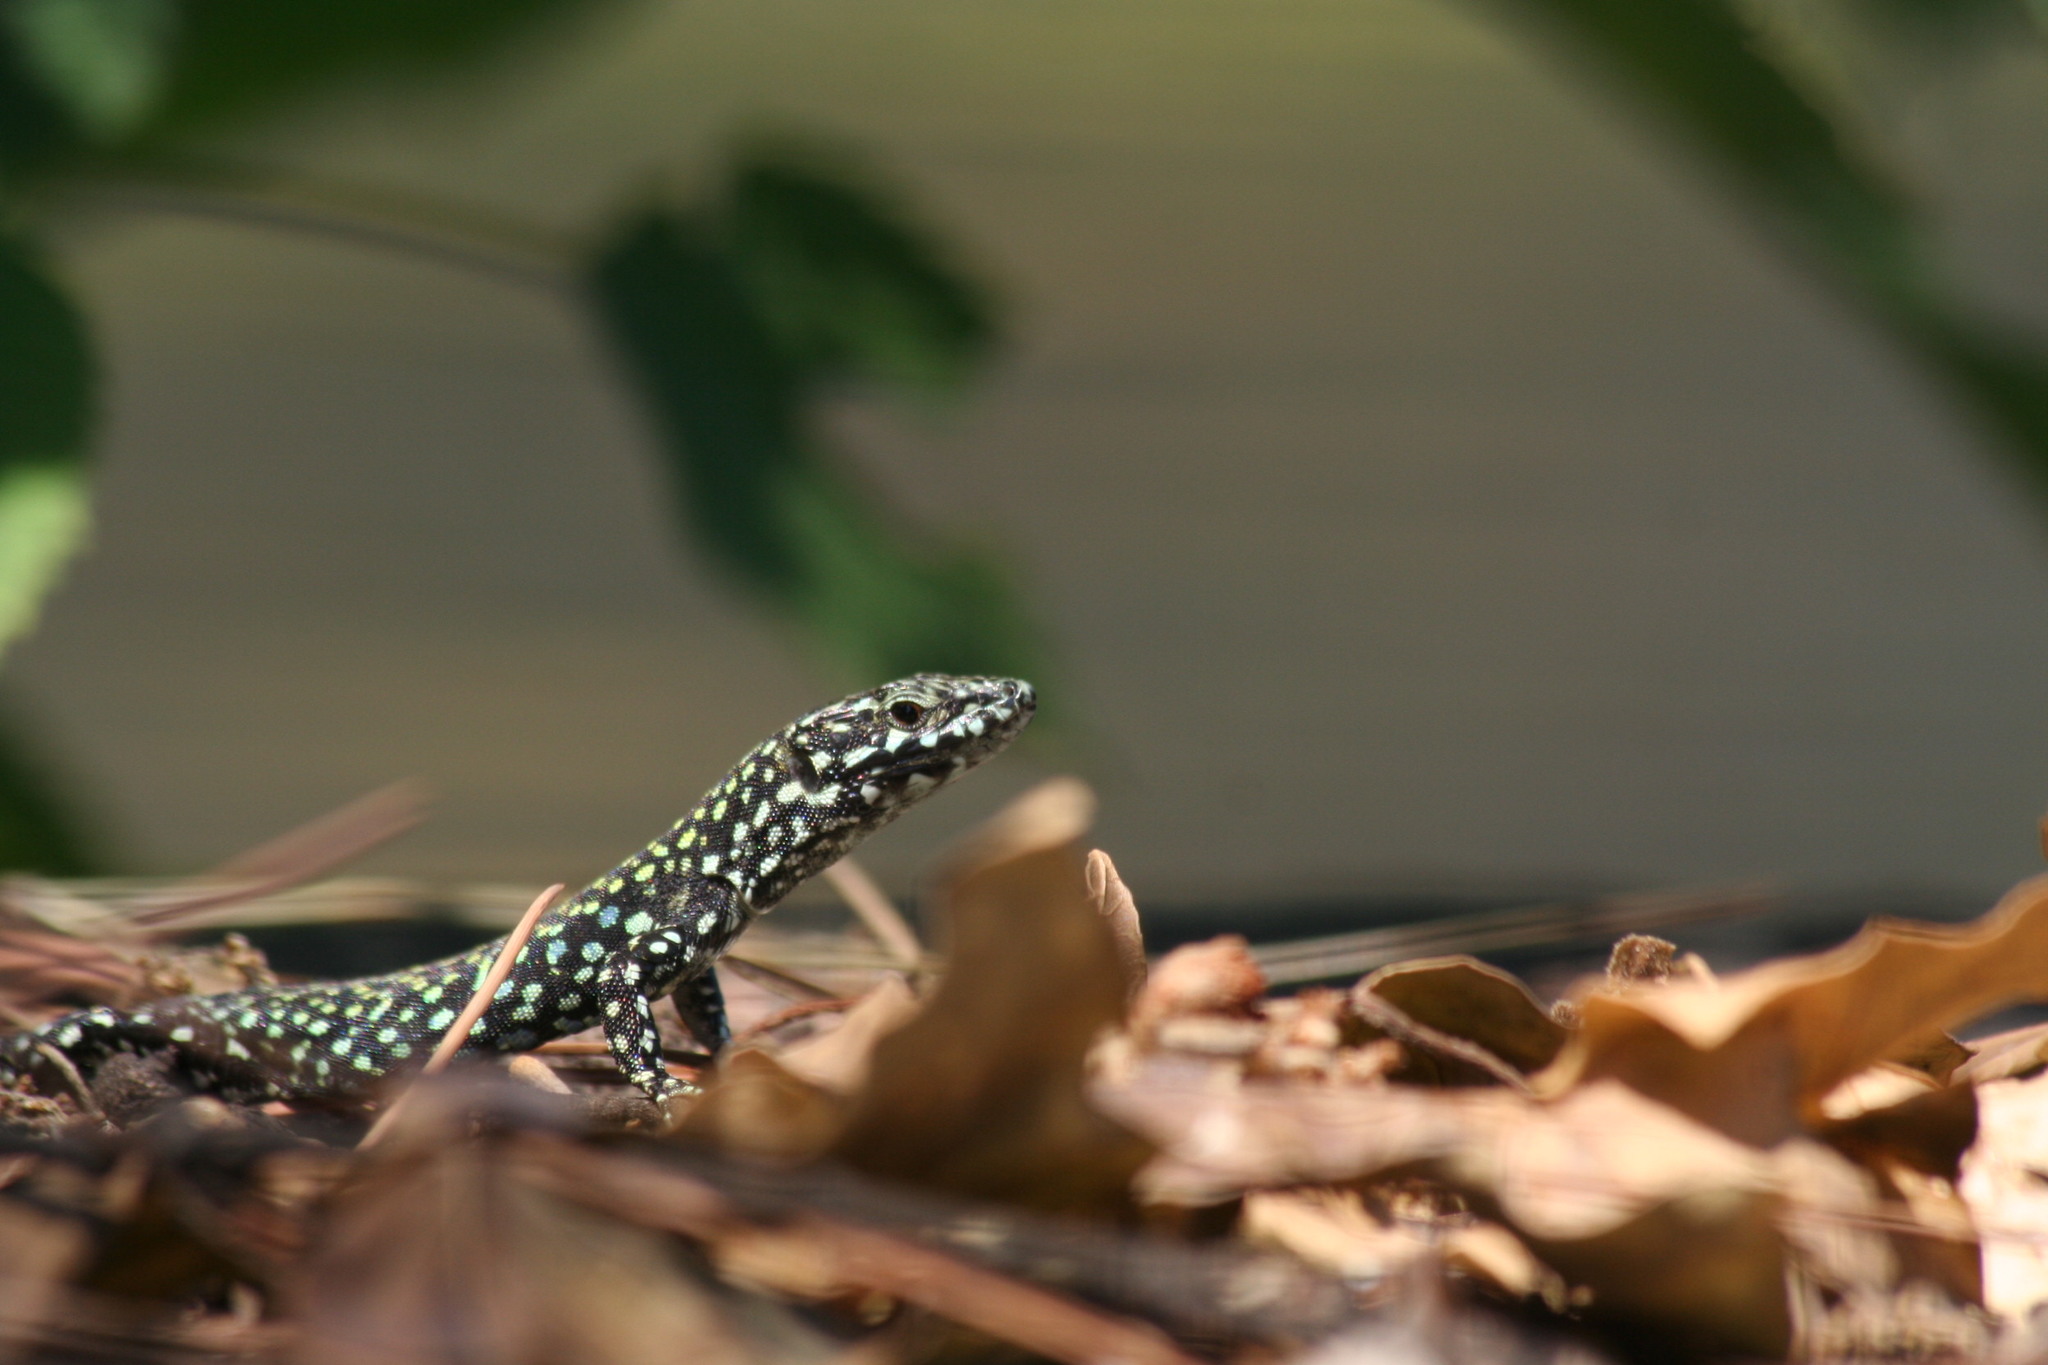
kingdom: Animalia
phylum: Chordata
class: Squamata
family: Lacertidae
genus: Podarcis
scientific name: Podarcis muralis
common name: Common wall lizard
